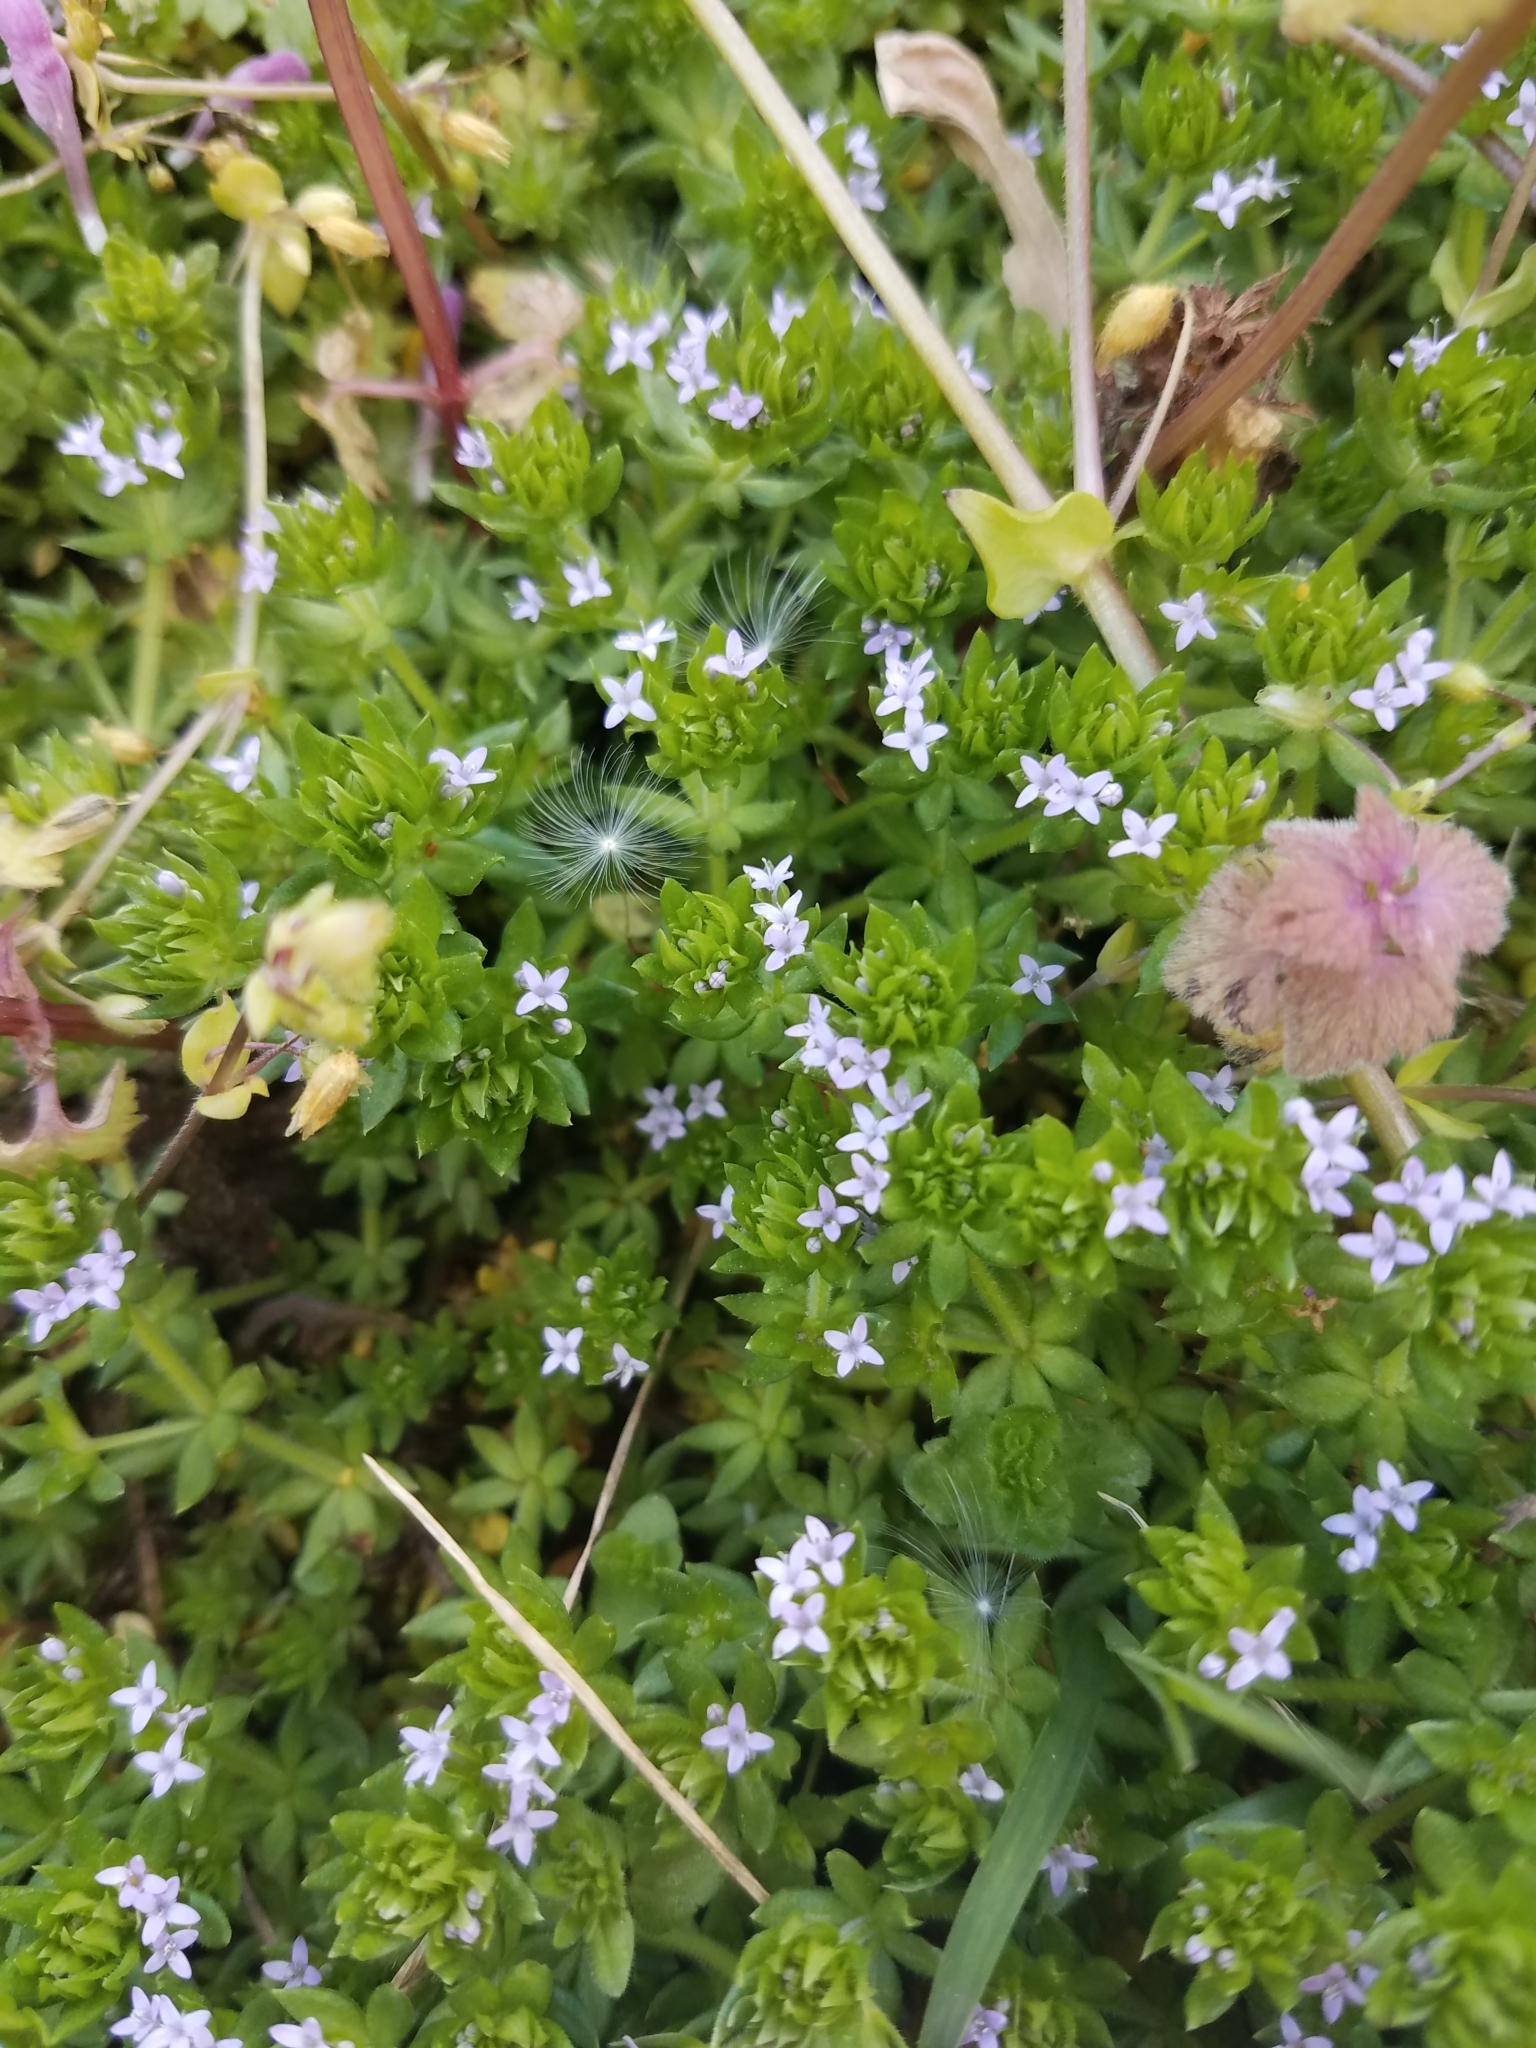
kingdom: Plantae
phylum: Tracheophyta
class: Magnoliopsida
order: Gentianales
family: Rubiaceae
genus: Sherardia
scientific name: Sherardia arvensis
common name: Field madder
